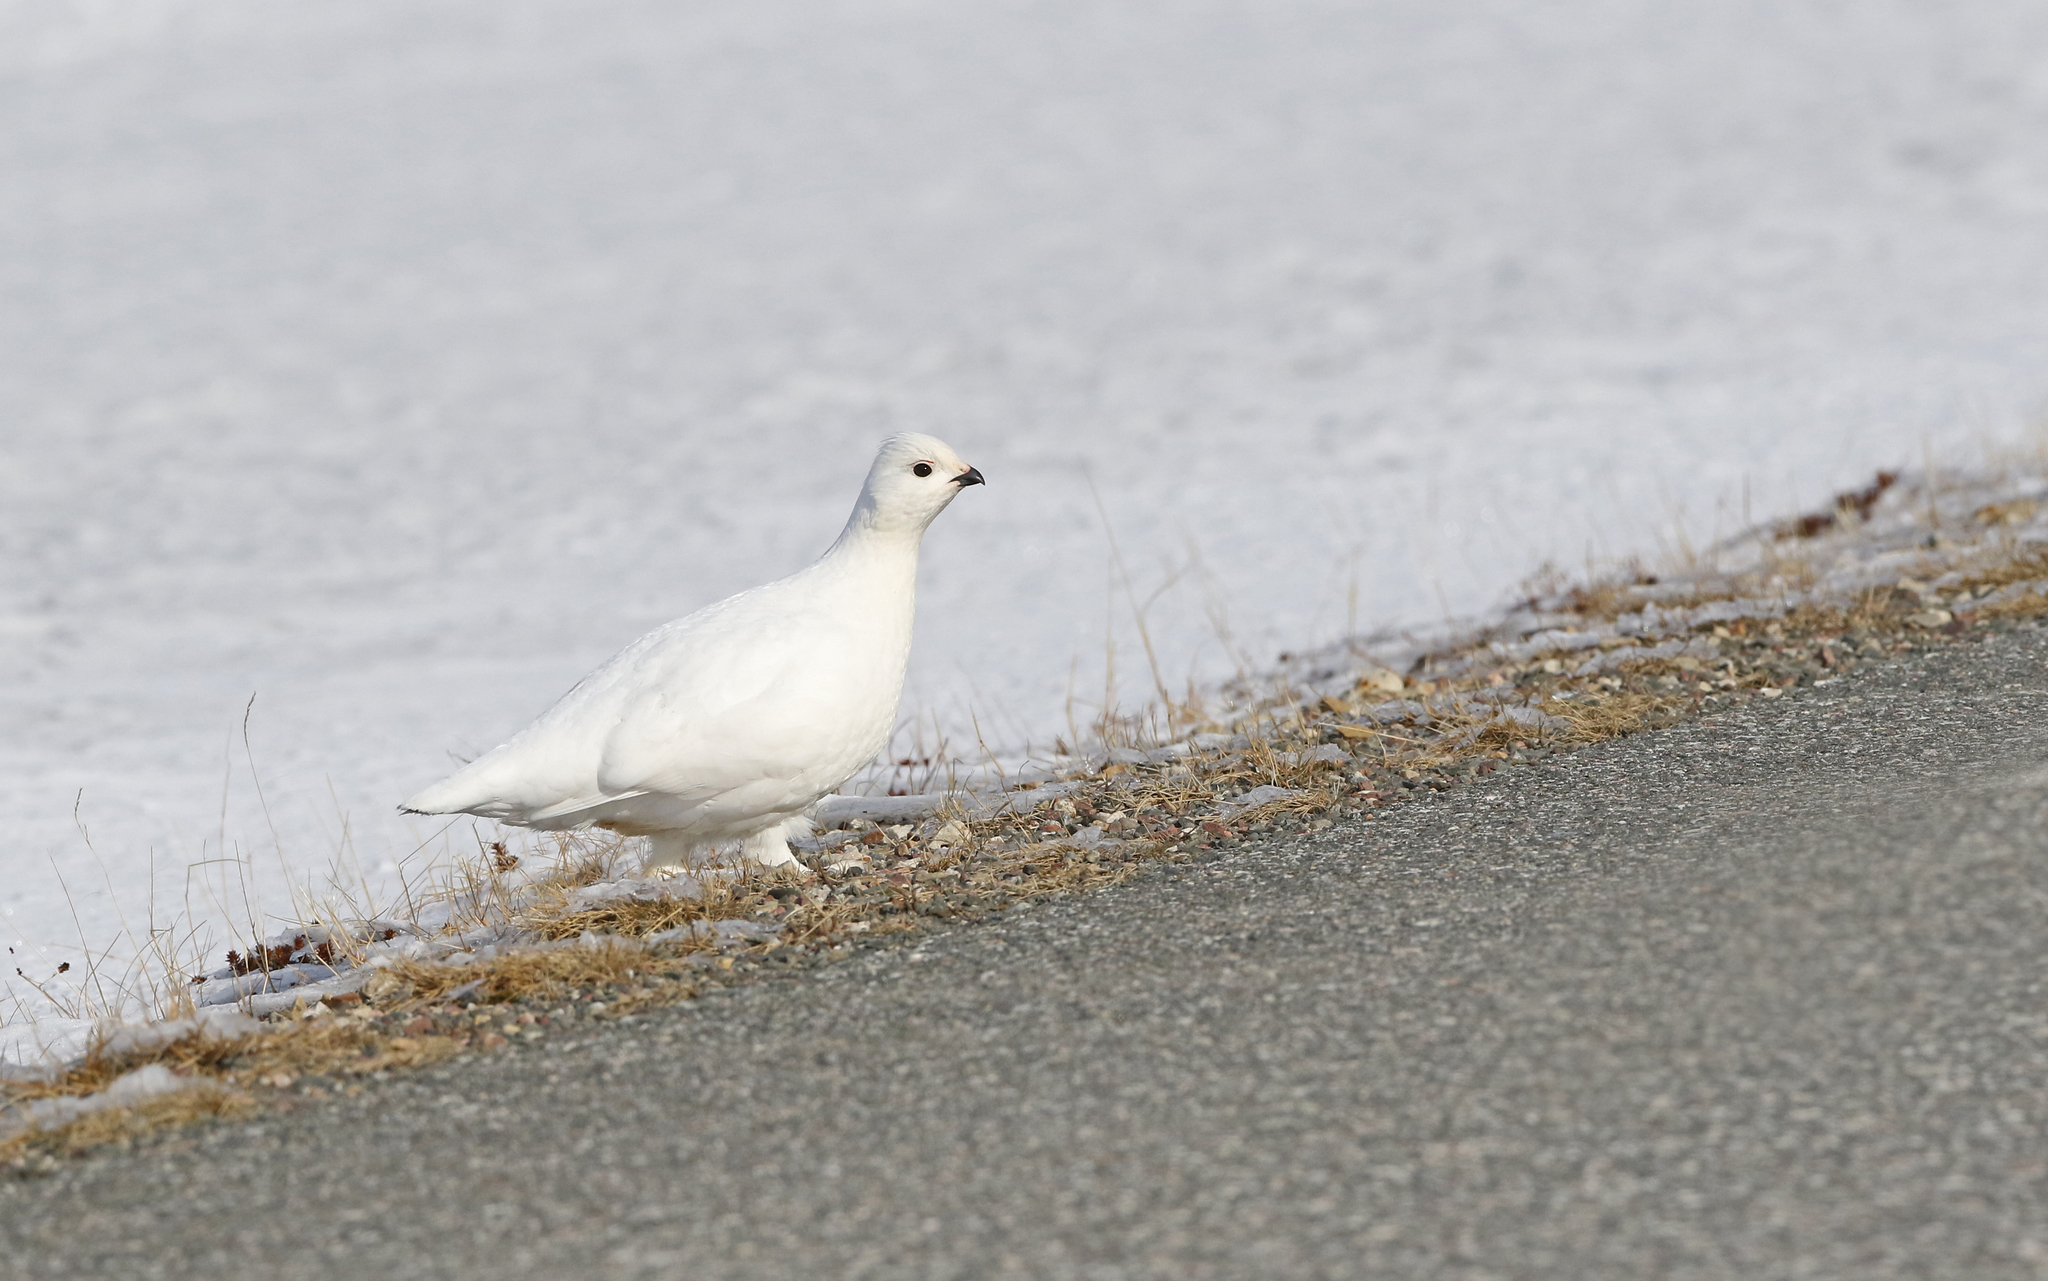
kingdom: Animalia
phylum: Chordata
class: Aves
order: Galliformes
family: Phasianidae
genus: Lagopus
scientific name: Lagopus lagopus
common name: Willow ptarmigan
